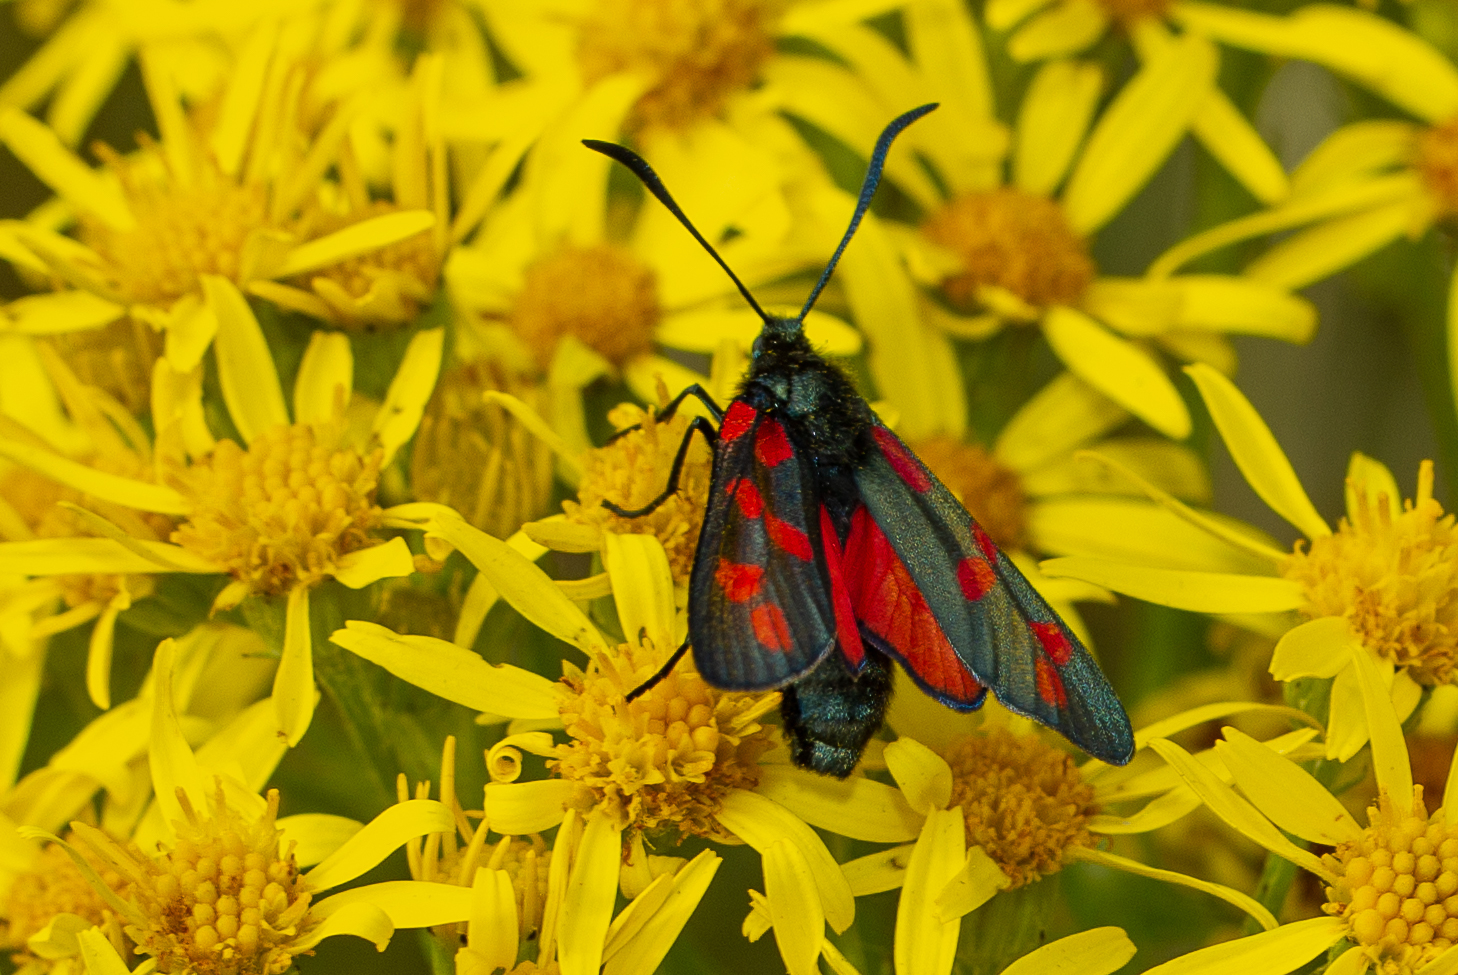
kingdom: Animalia
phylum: Arthropoda
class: Insecta
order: Lepidoptera
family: Zygaenidae
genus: Zygaena
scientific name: Zygaena filipendulae
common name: Six-spot burnet
